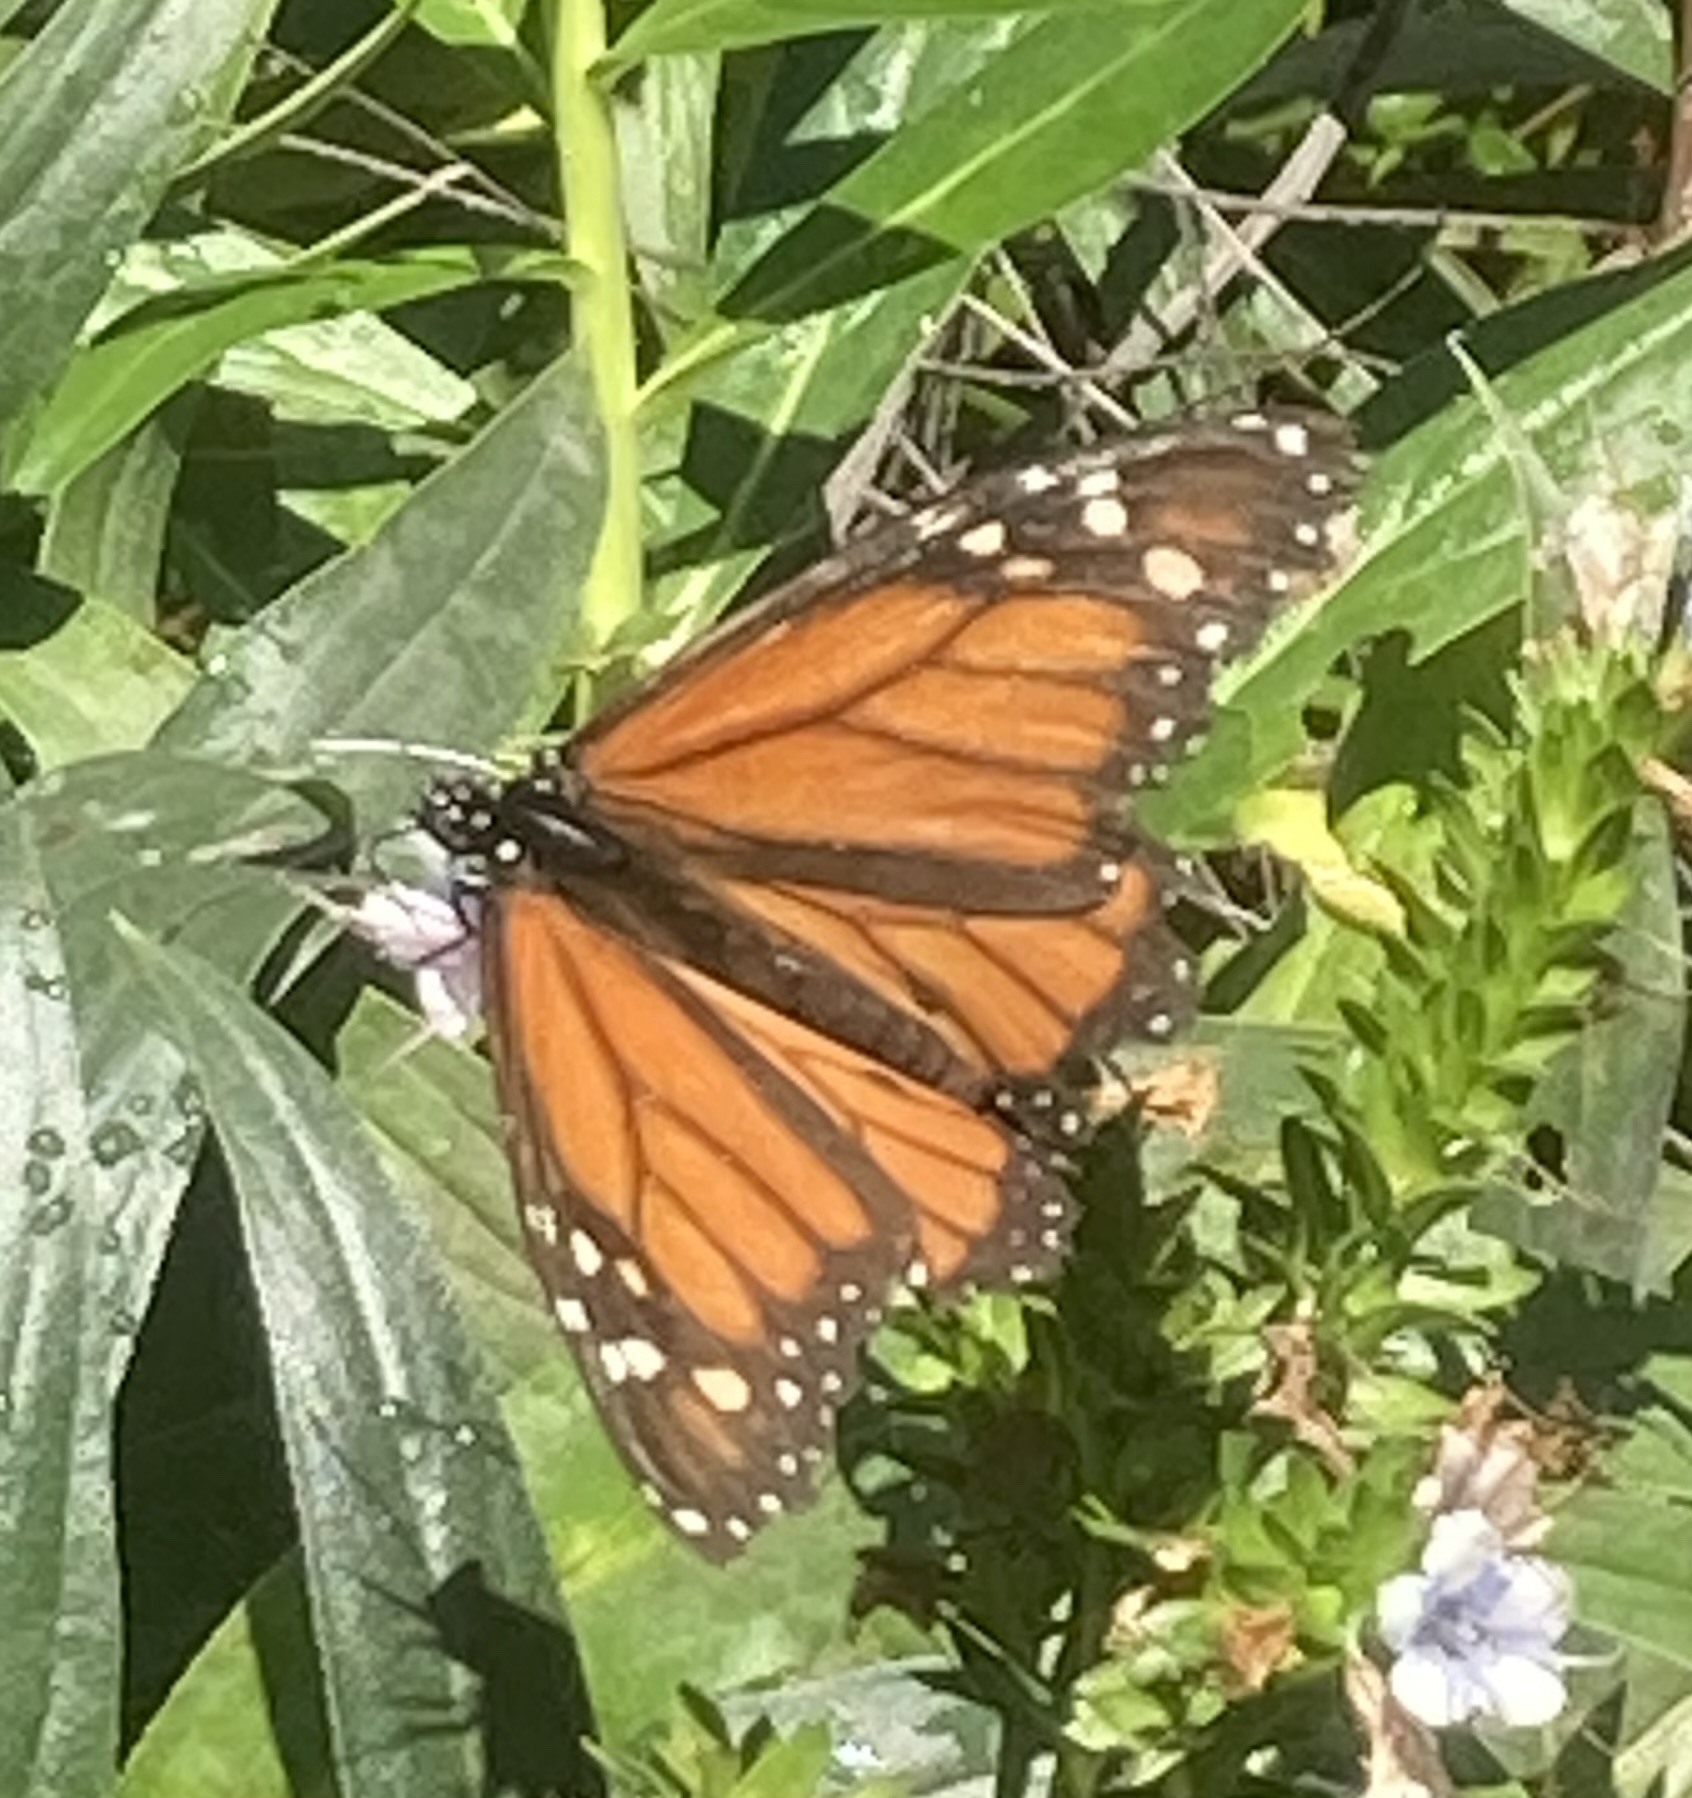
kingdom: Animalia
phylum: Arthropoda
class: Insecta
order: Lepidoptera
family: Nymphalidae
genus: Danaus
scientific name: Danaus plexippus
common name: Monarch
